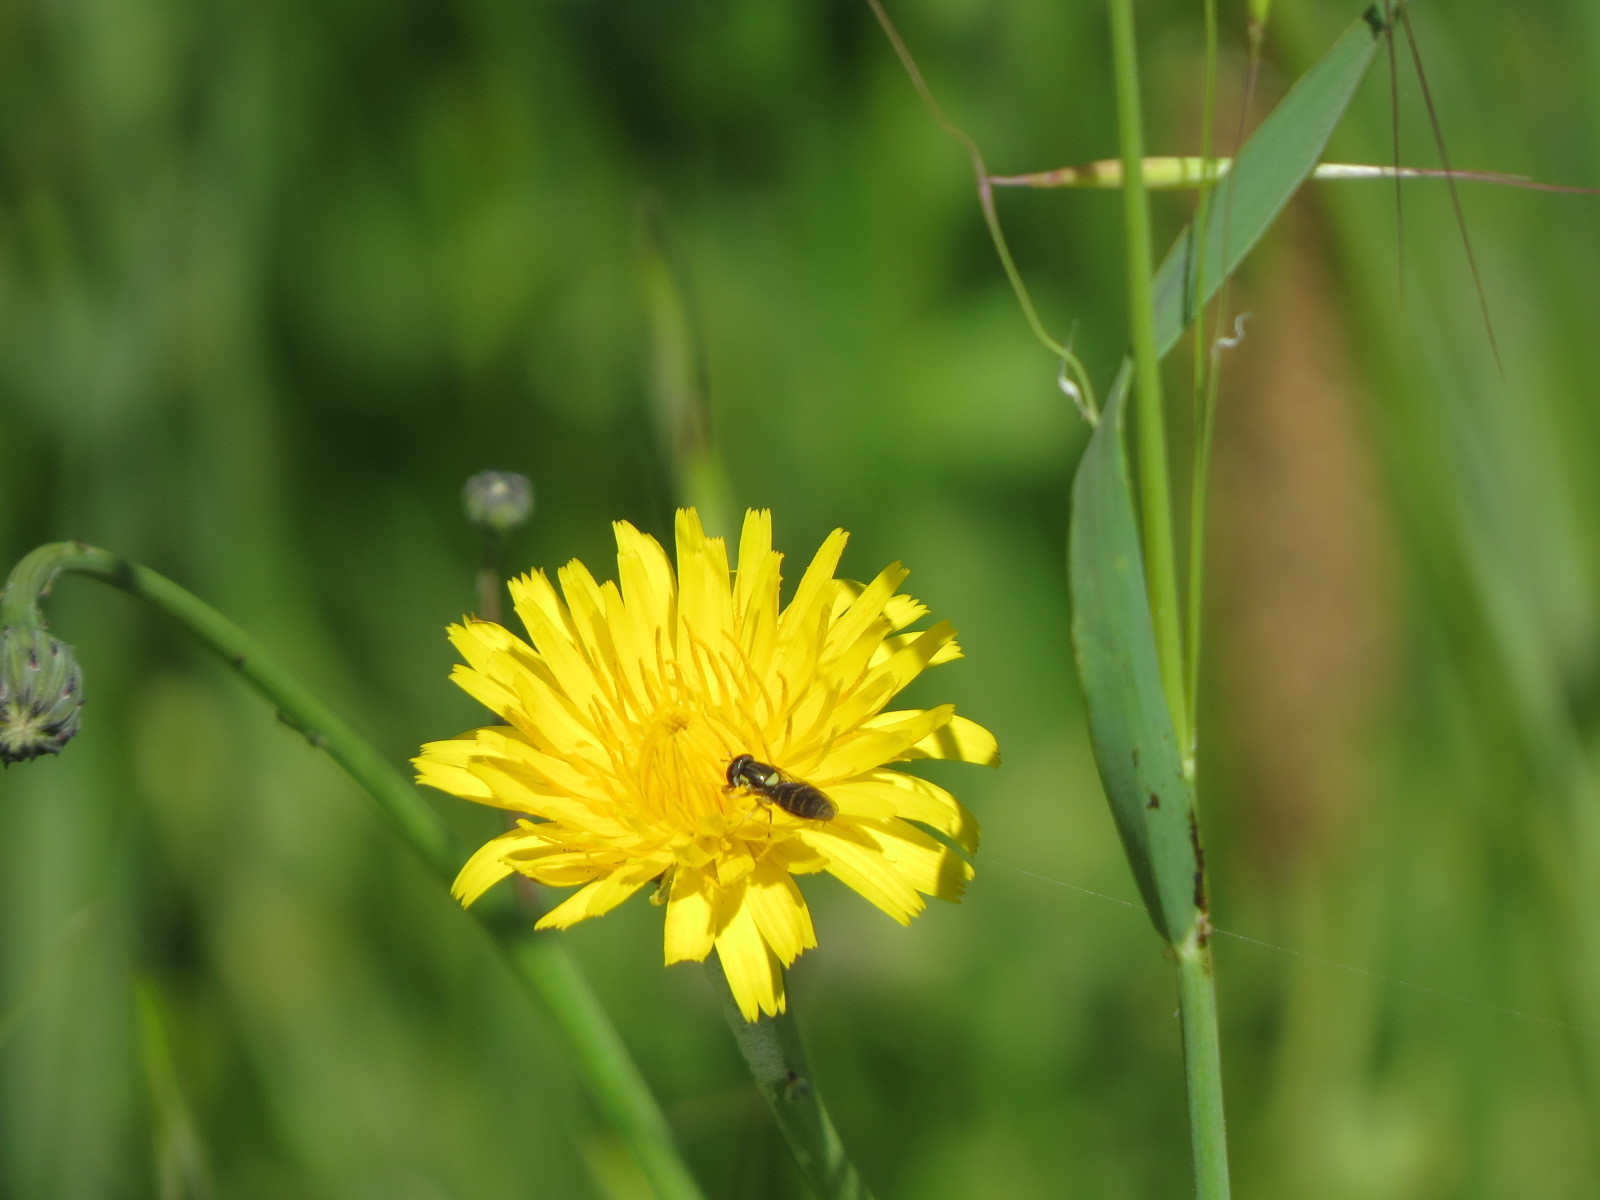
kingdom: Animalia
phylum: Arthropoda
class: Insecta
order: Diptera
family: Syrphidae
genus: Sphaerophoria
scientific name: Sphaerophoria sulphuripes
